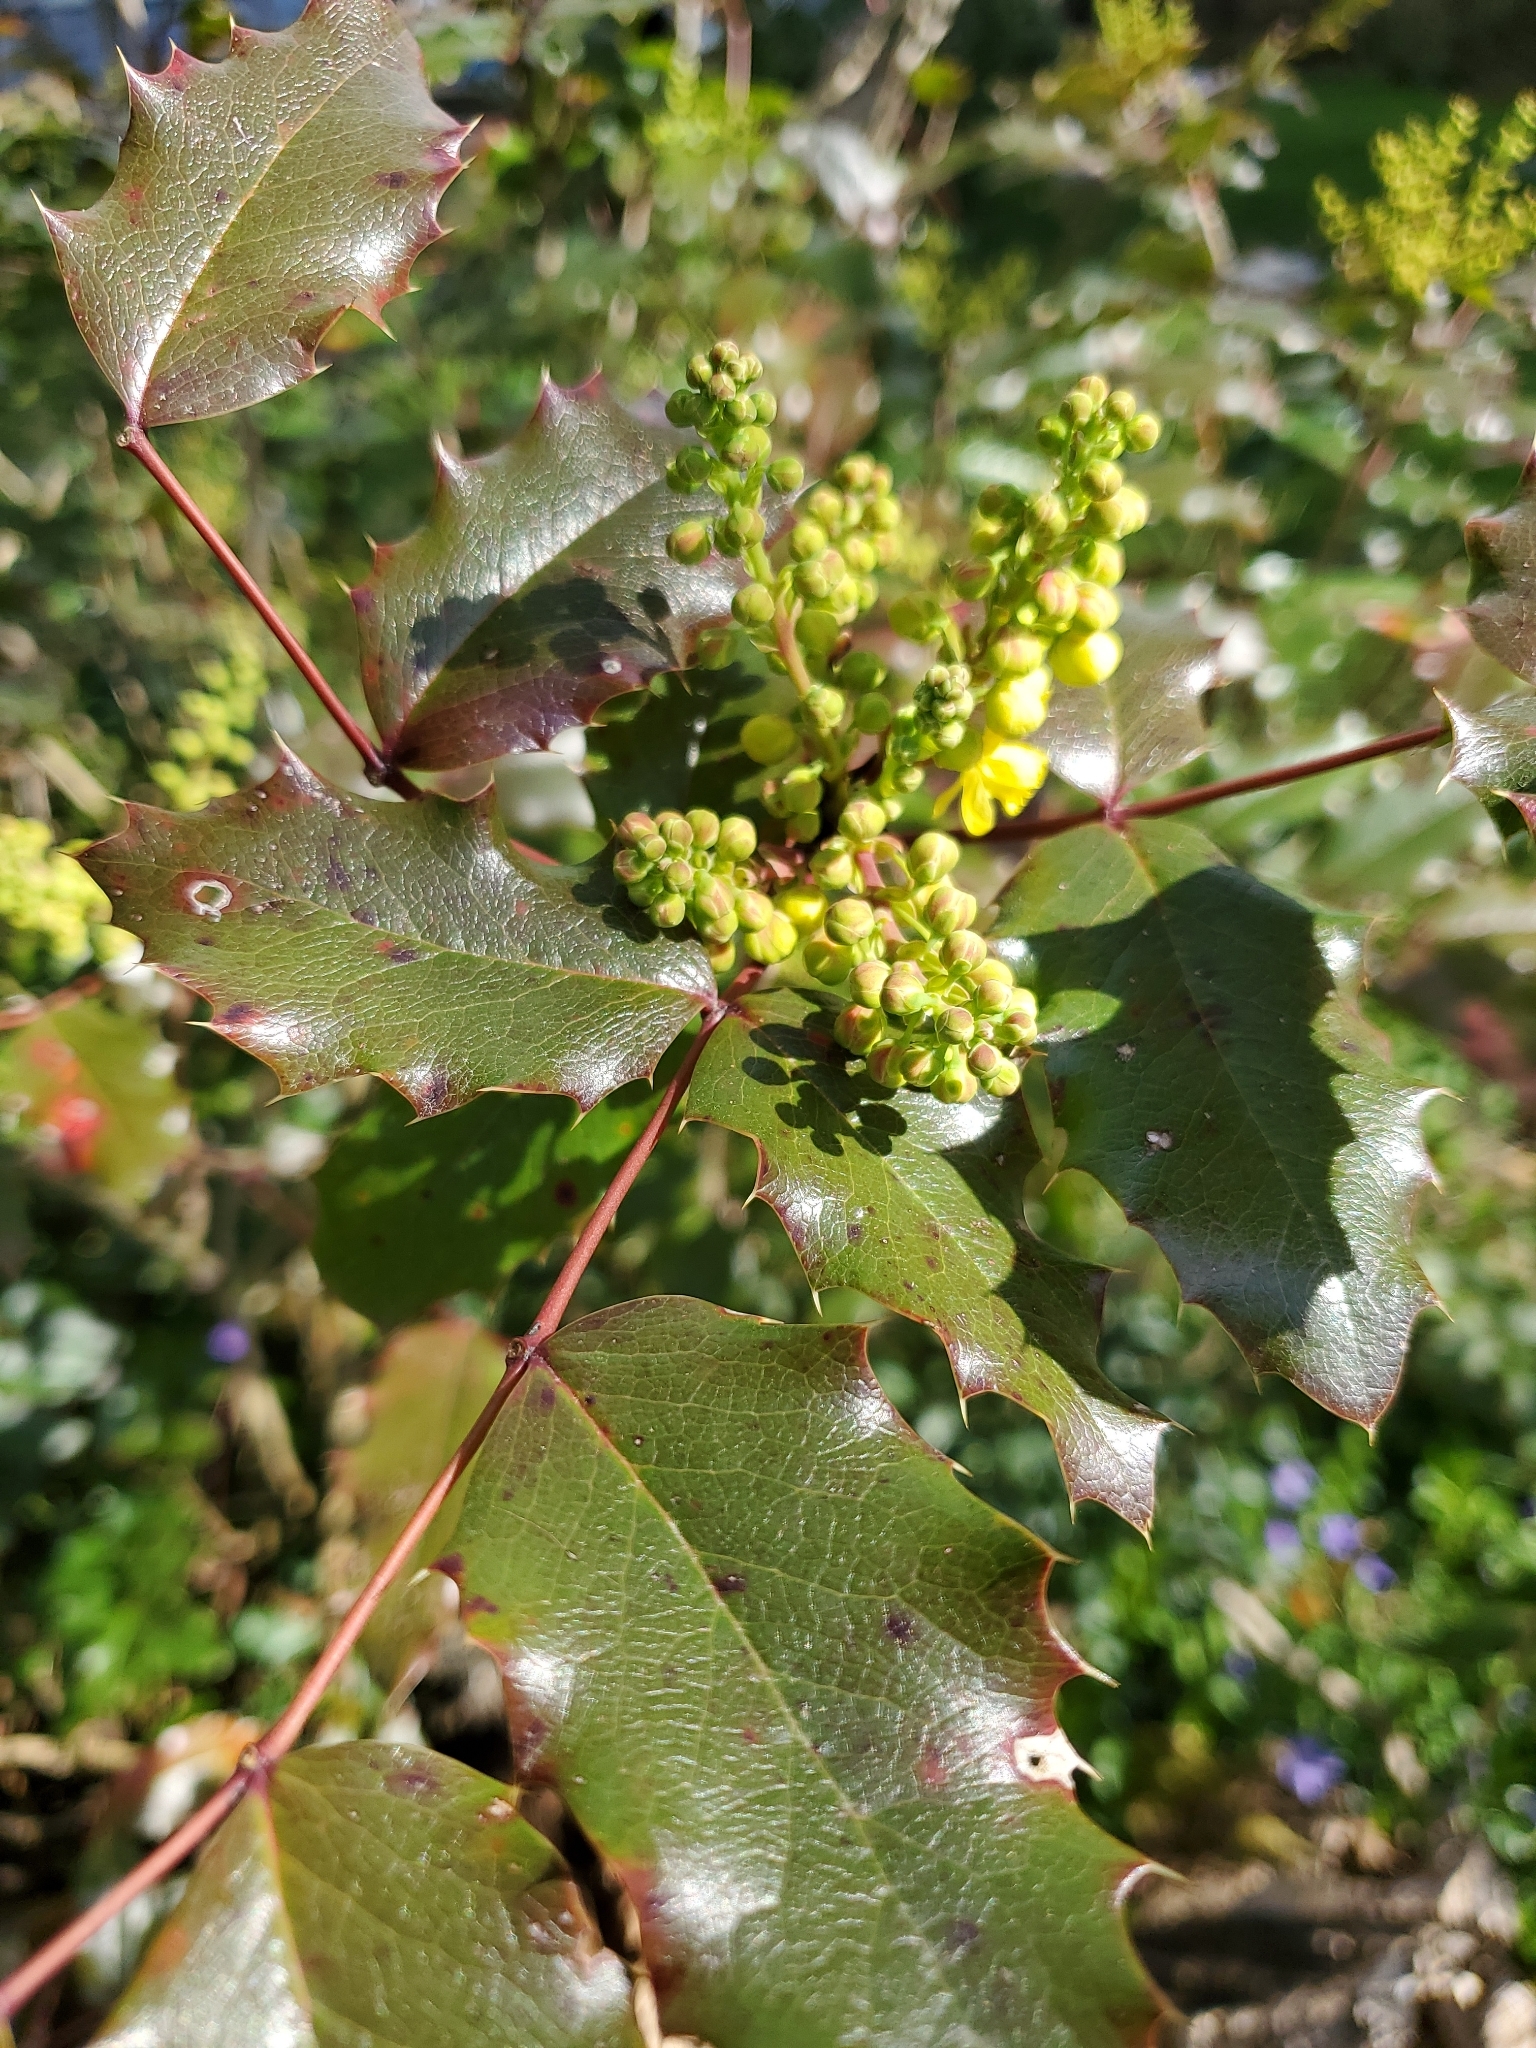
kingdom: Plantae
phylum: Tracheophyta
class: Magnoliopsida
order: Ranunculales
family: Berberidaceae
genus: Mahonia
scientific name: Mahonia aquifolium
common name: Oregon-grape
